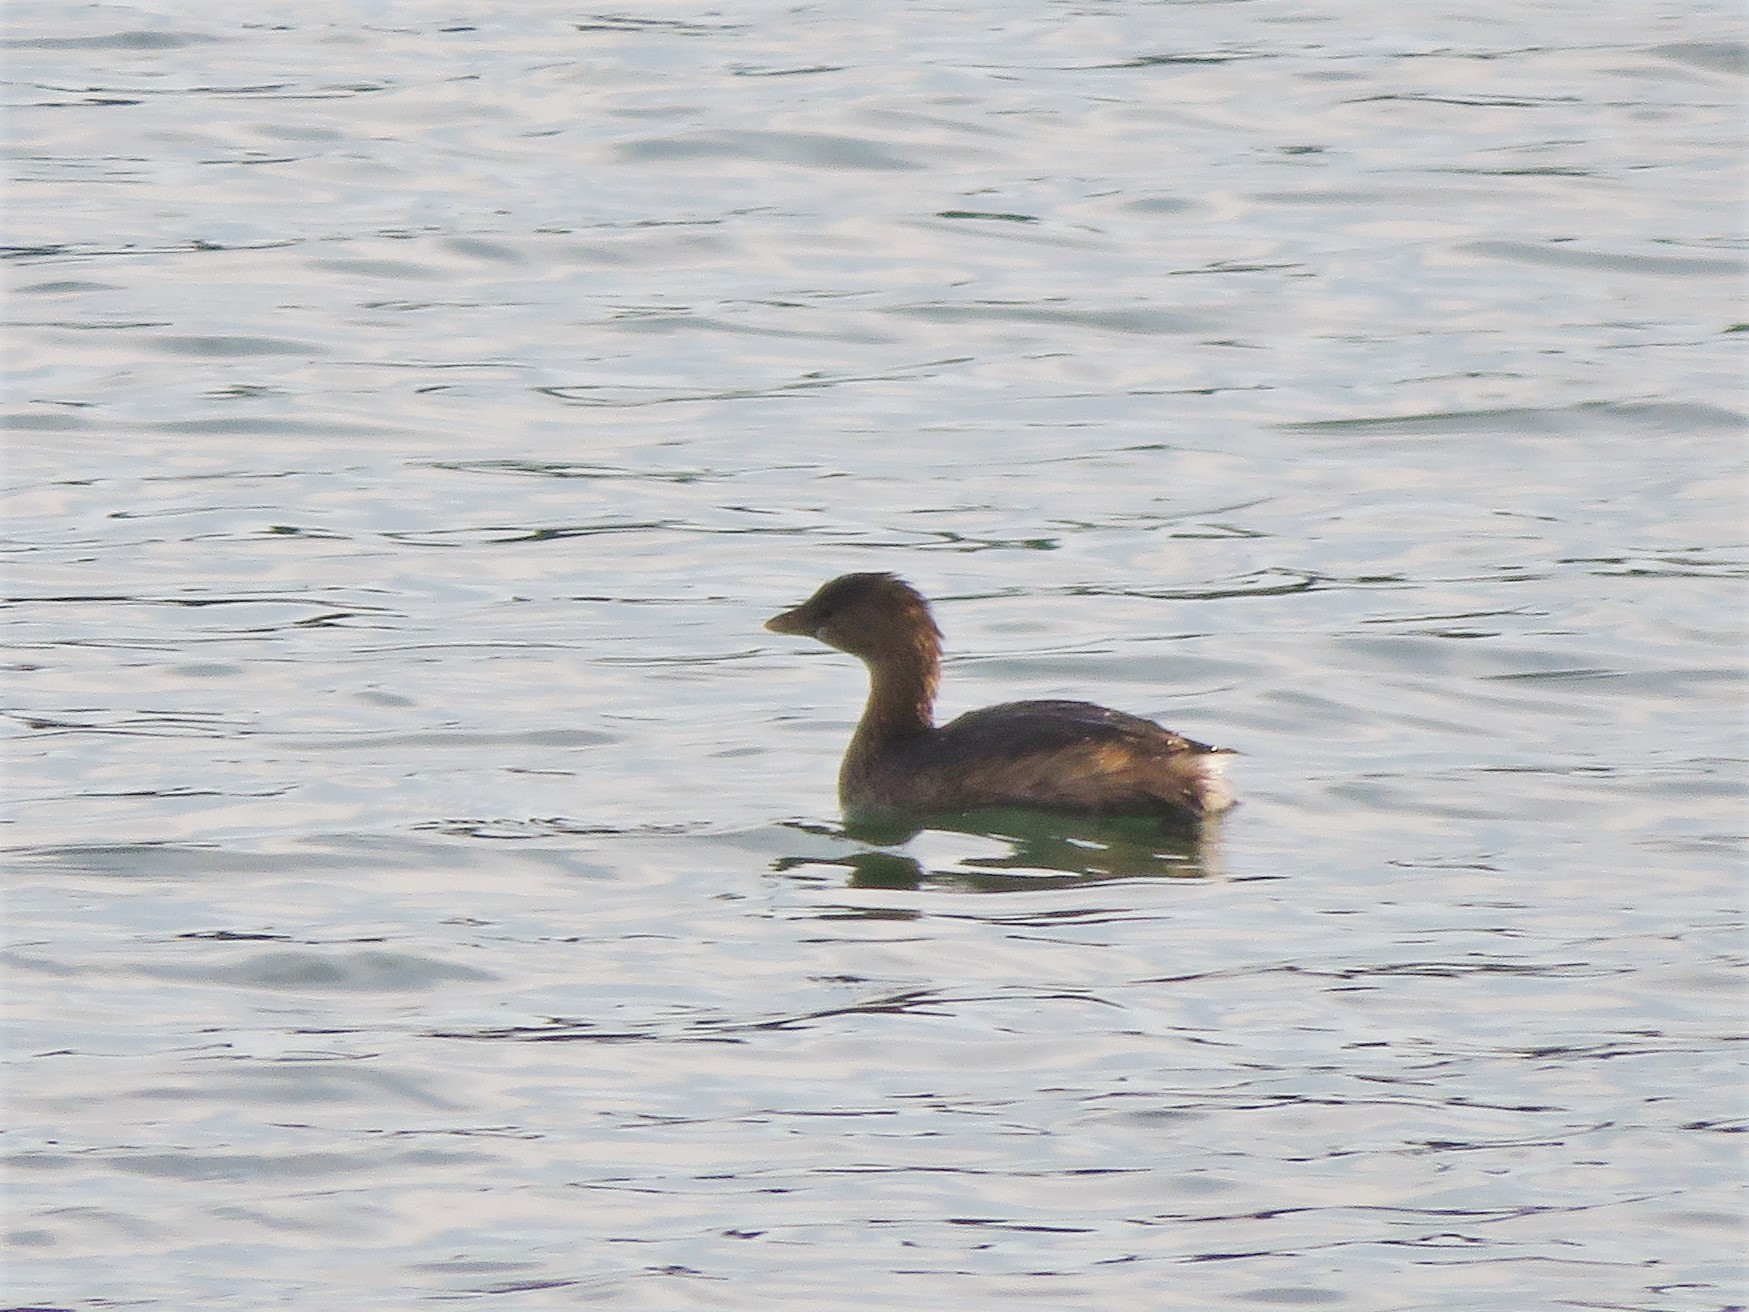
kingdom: Animalia
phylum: Chordata
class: Aves
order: Podicipediformes
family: Podicipedidae
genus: Podilymbus
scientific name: Podilymbus podiceps
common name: Pied-billed grebe
